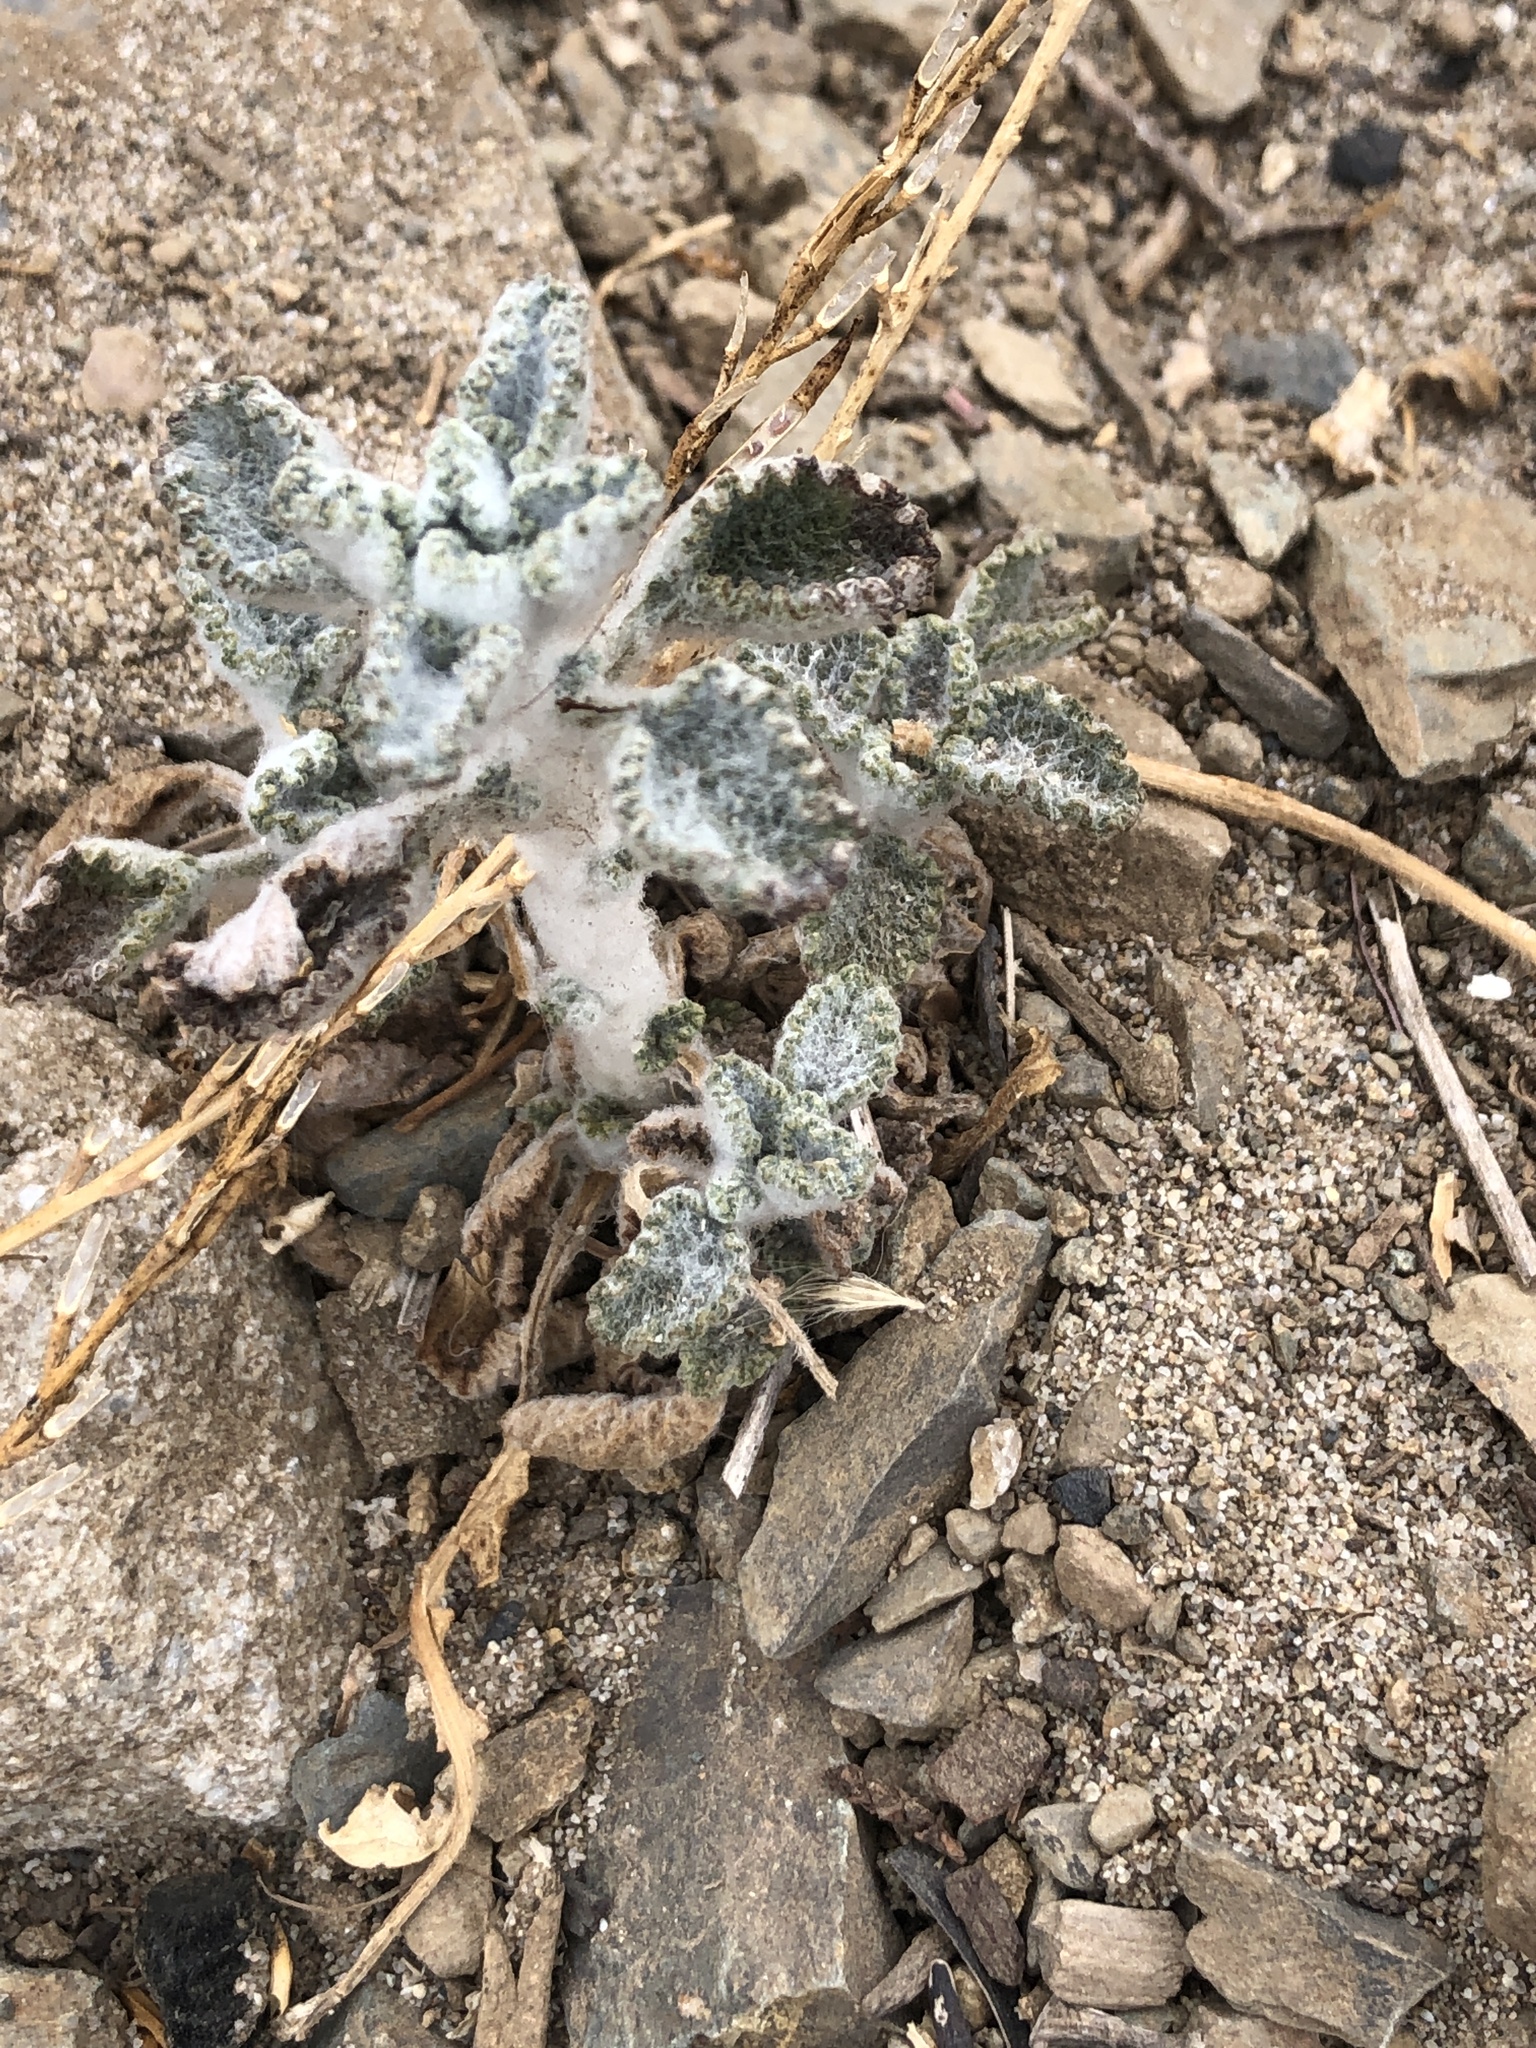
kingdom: Plantae
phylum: Tracheophyta
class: Magnoliopsida
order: Lamiales
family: Lamiaceae
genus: Marrubium
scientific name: Marrubium vulgare
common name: Horehound
